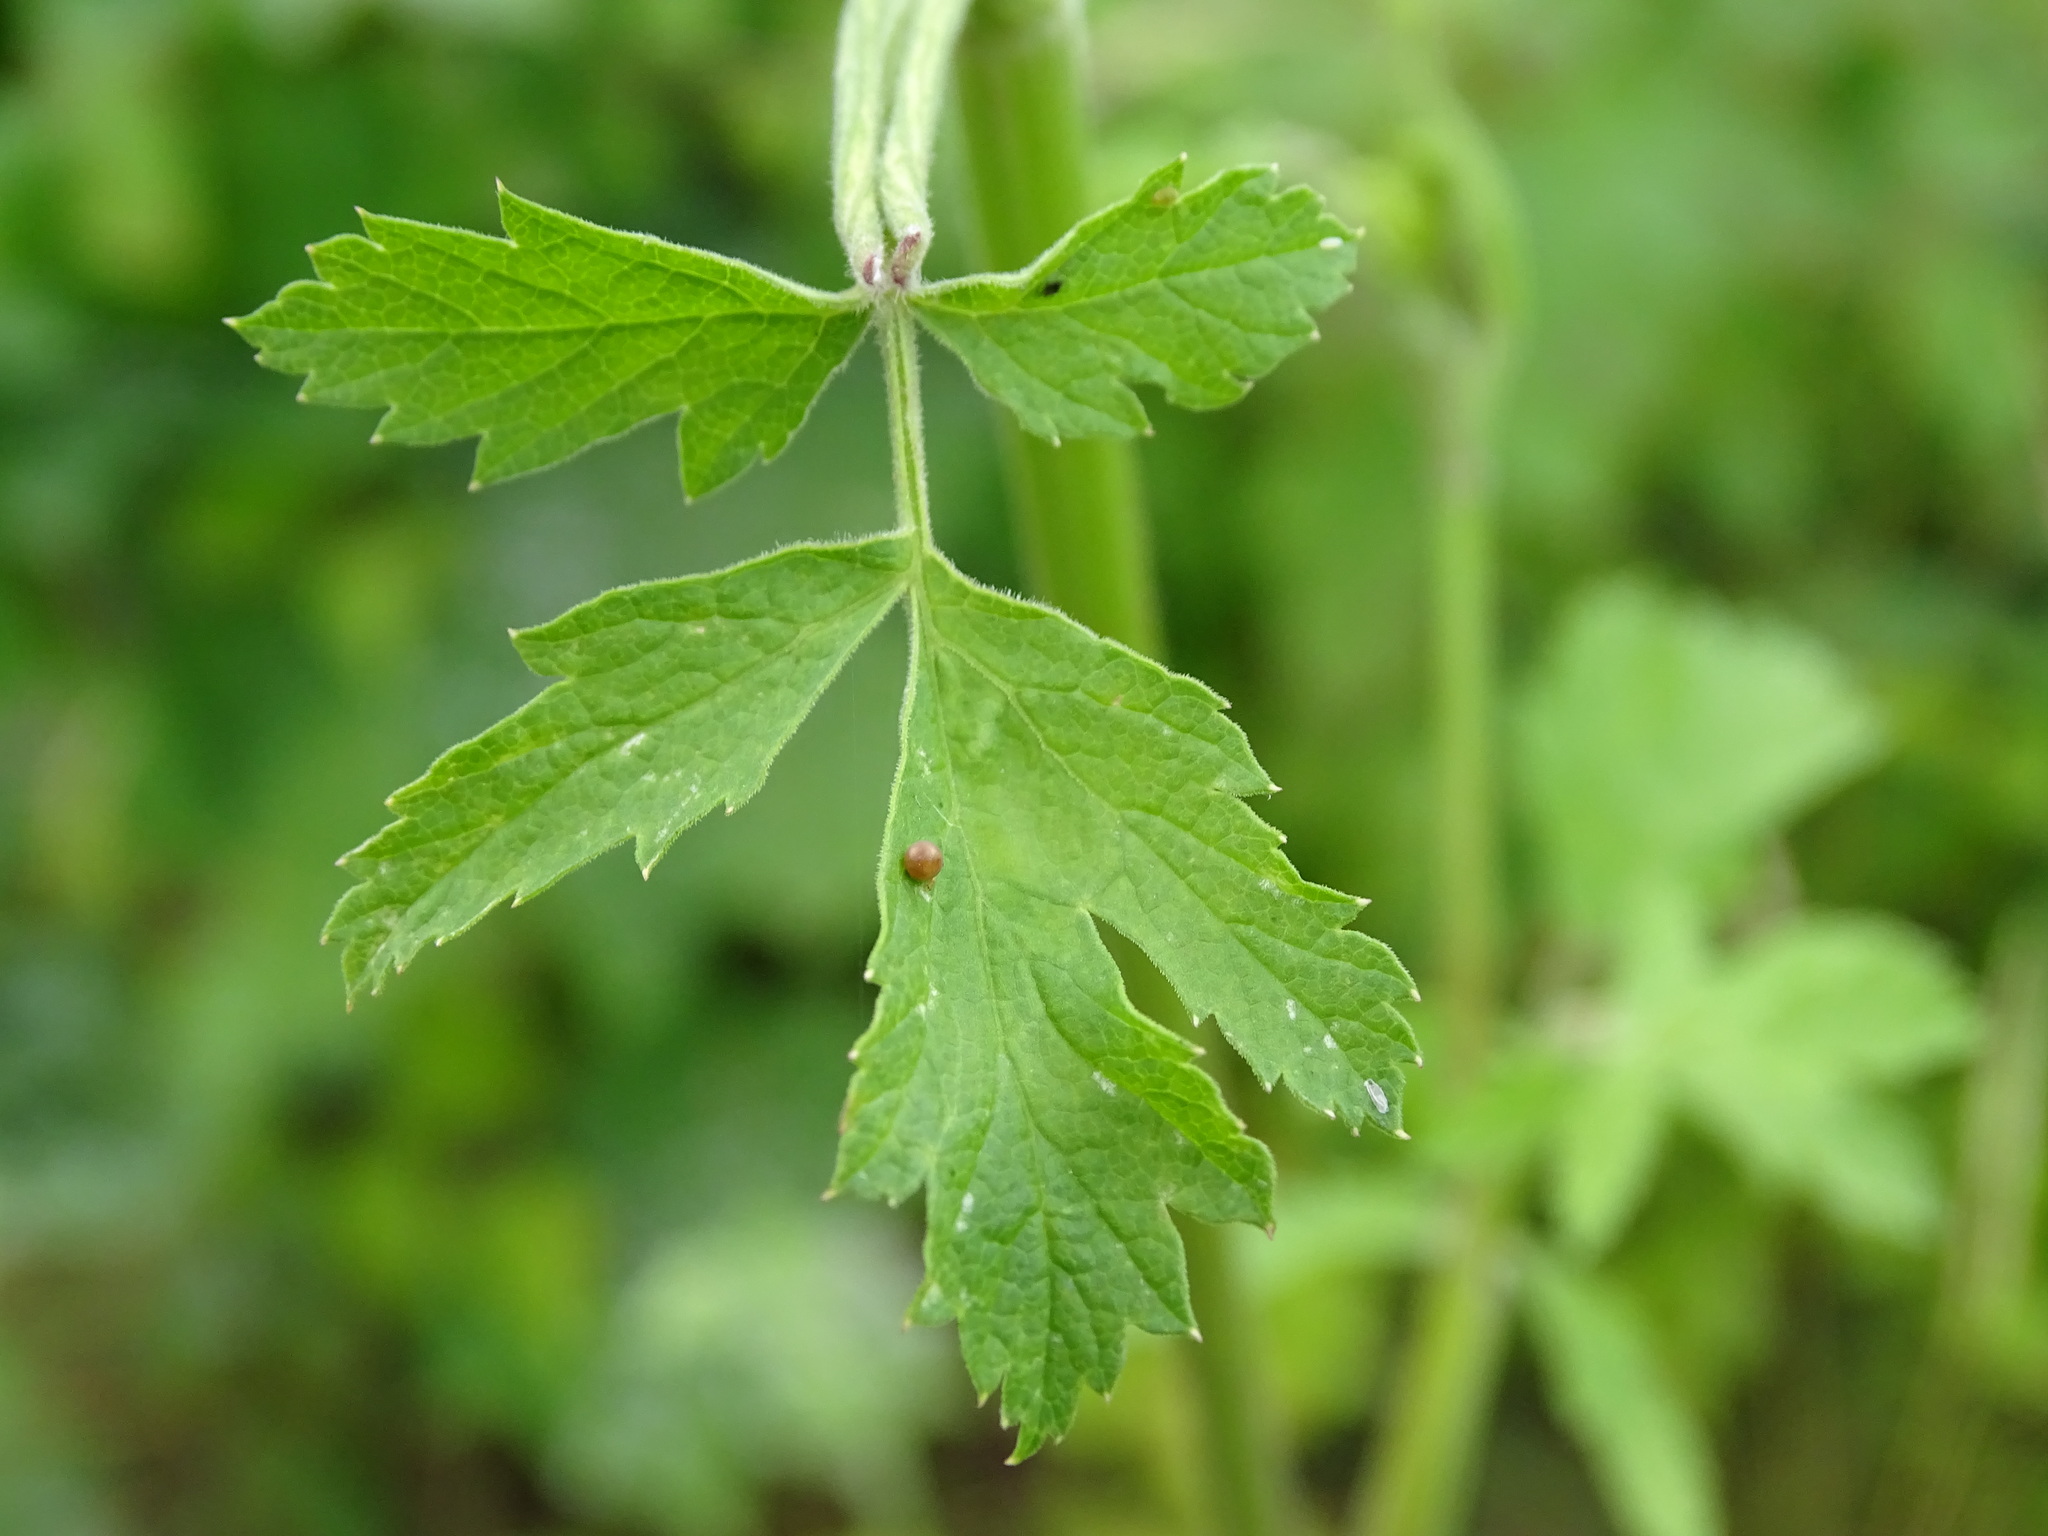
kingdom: Animalia
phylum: Arthropoda
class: Insecta
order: Lepidoptera
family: Papilionidae
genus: Papilio
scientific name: Papilio machaon
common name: Swallowtail
